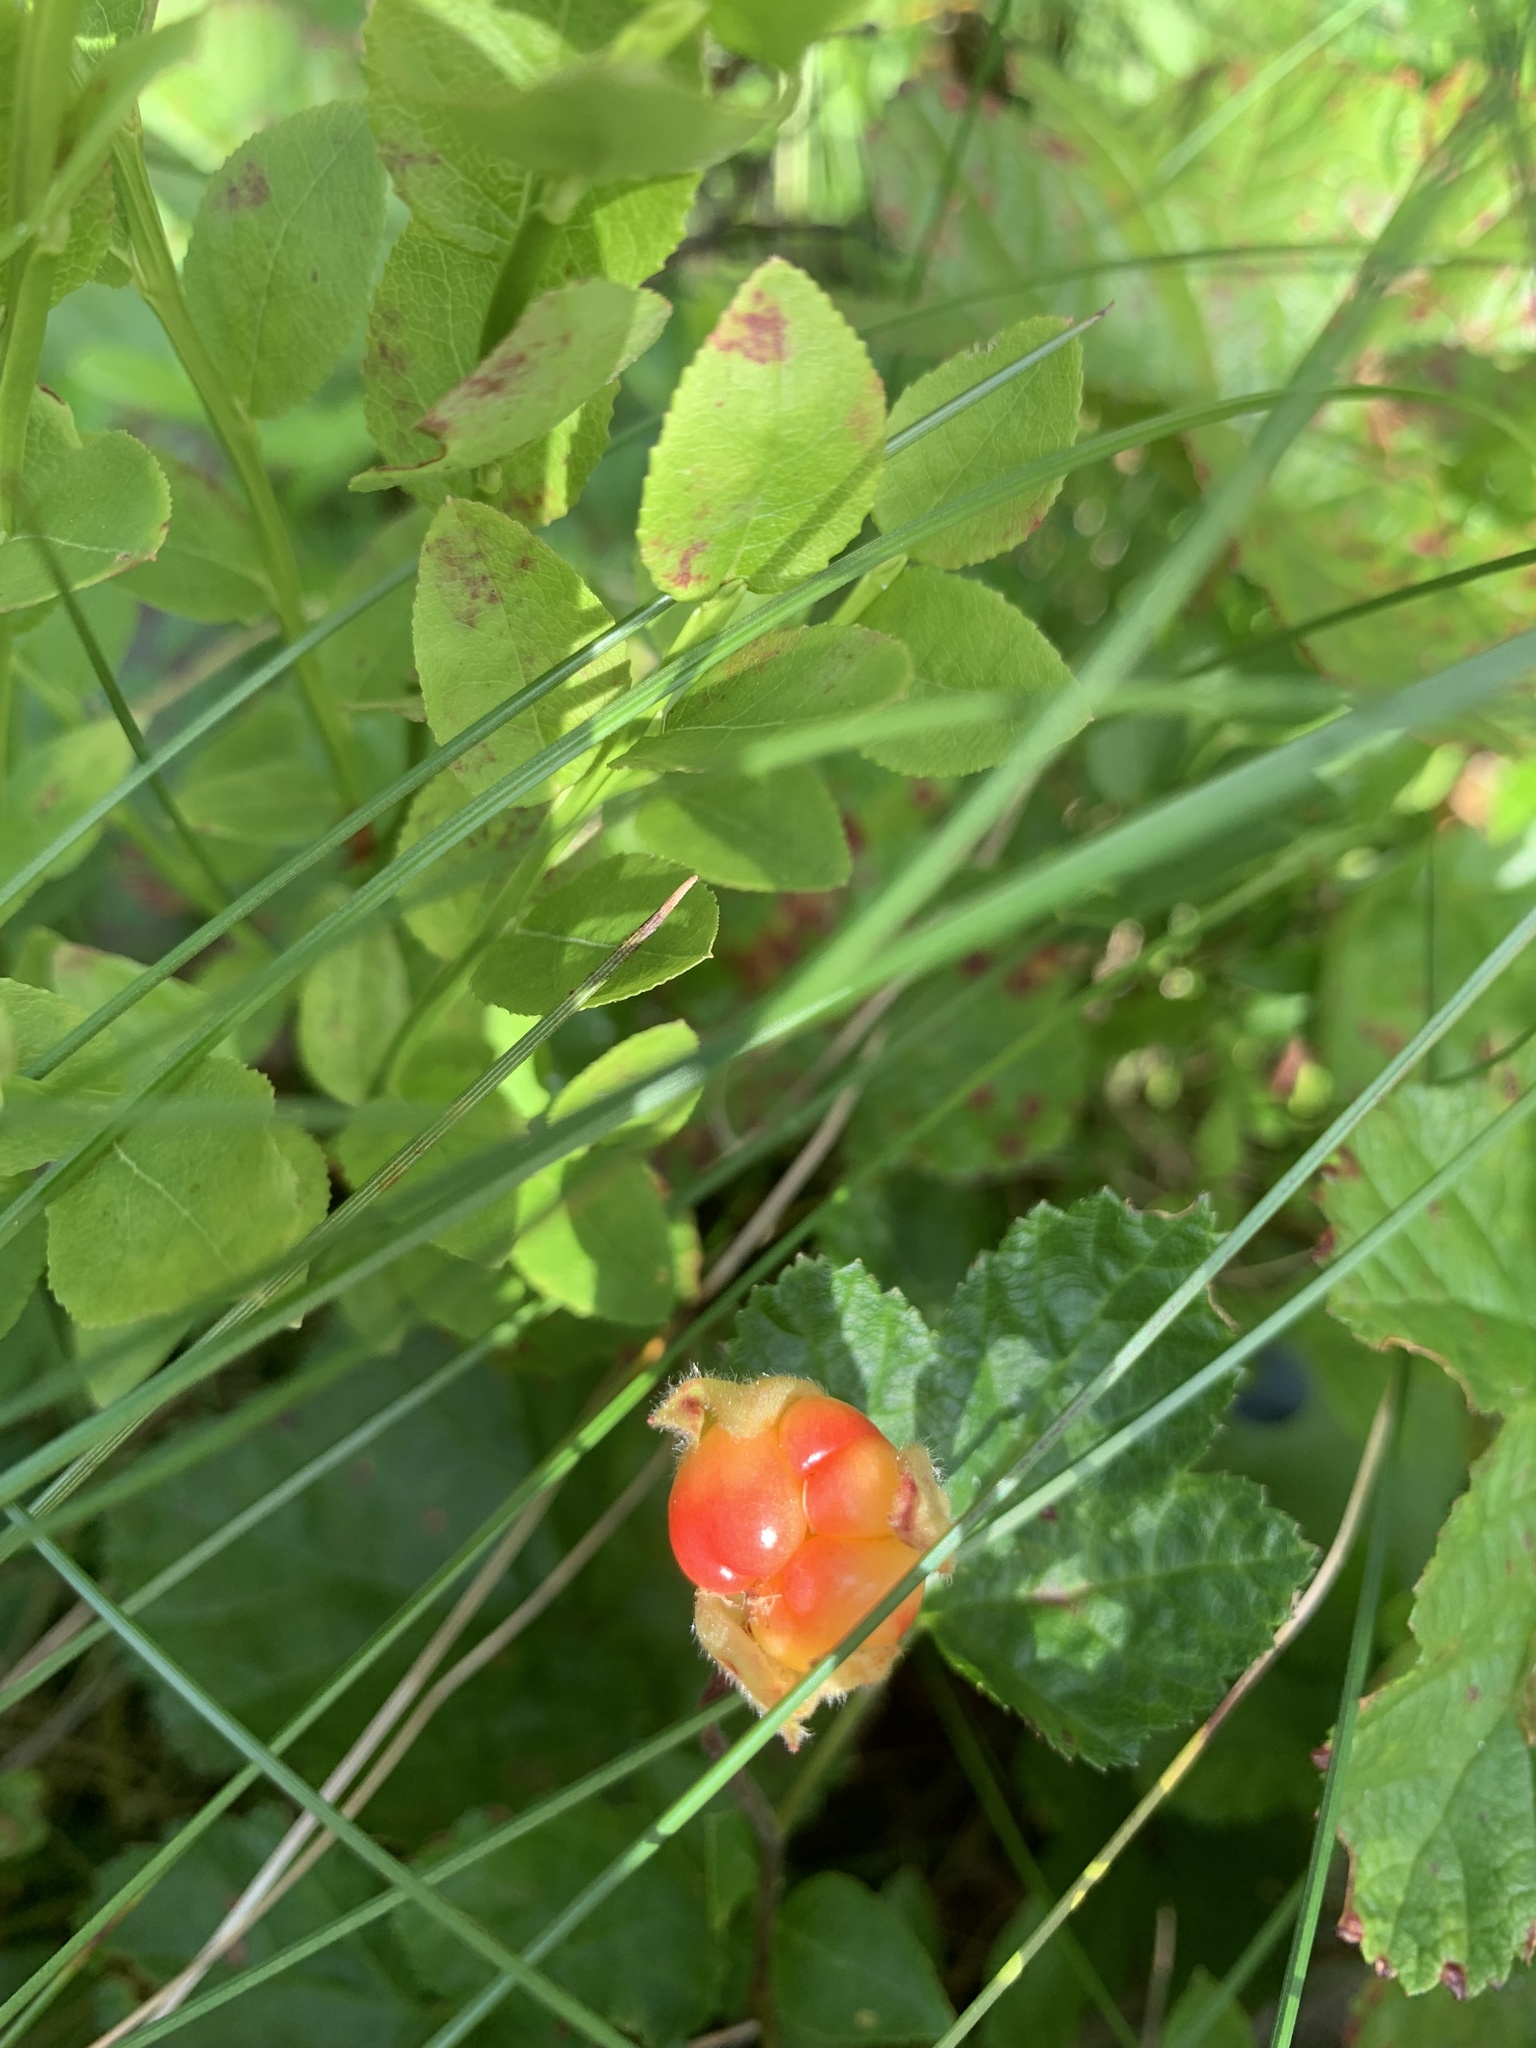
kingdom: Plantae
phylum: Tracheophyta
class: Magnoliopsida
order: Rosales
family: Rosaceae
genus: Rubus
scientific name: Rubus chamaemorus
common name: Cloudberry
